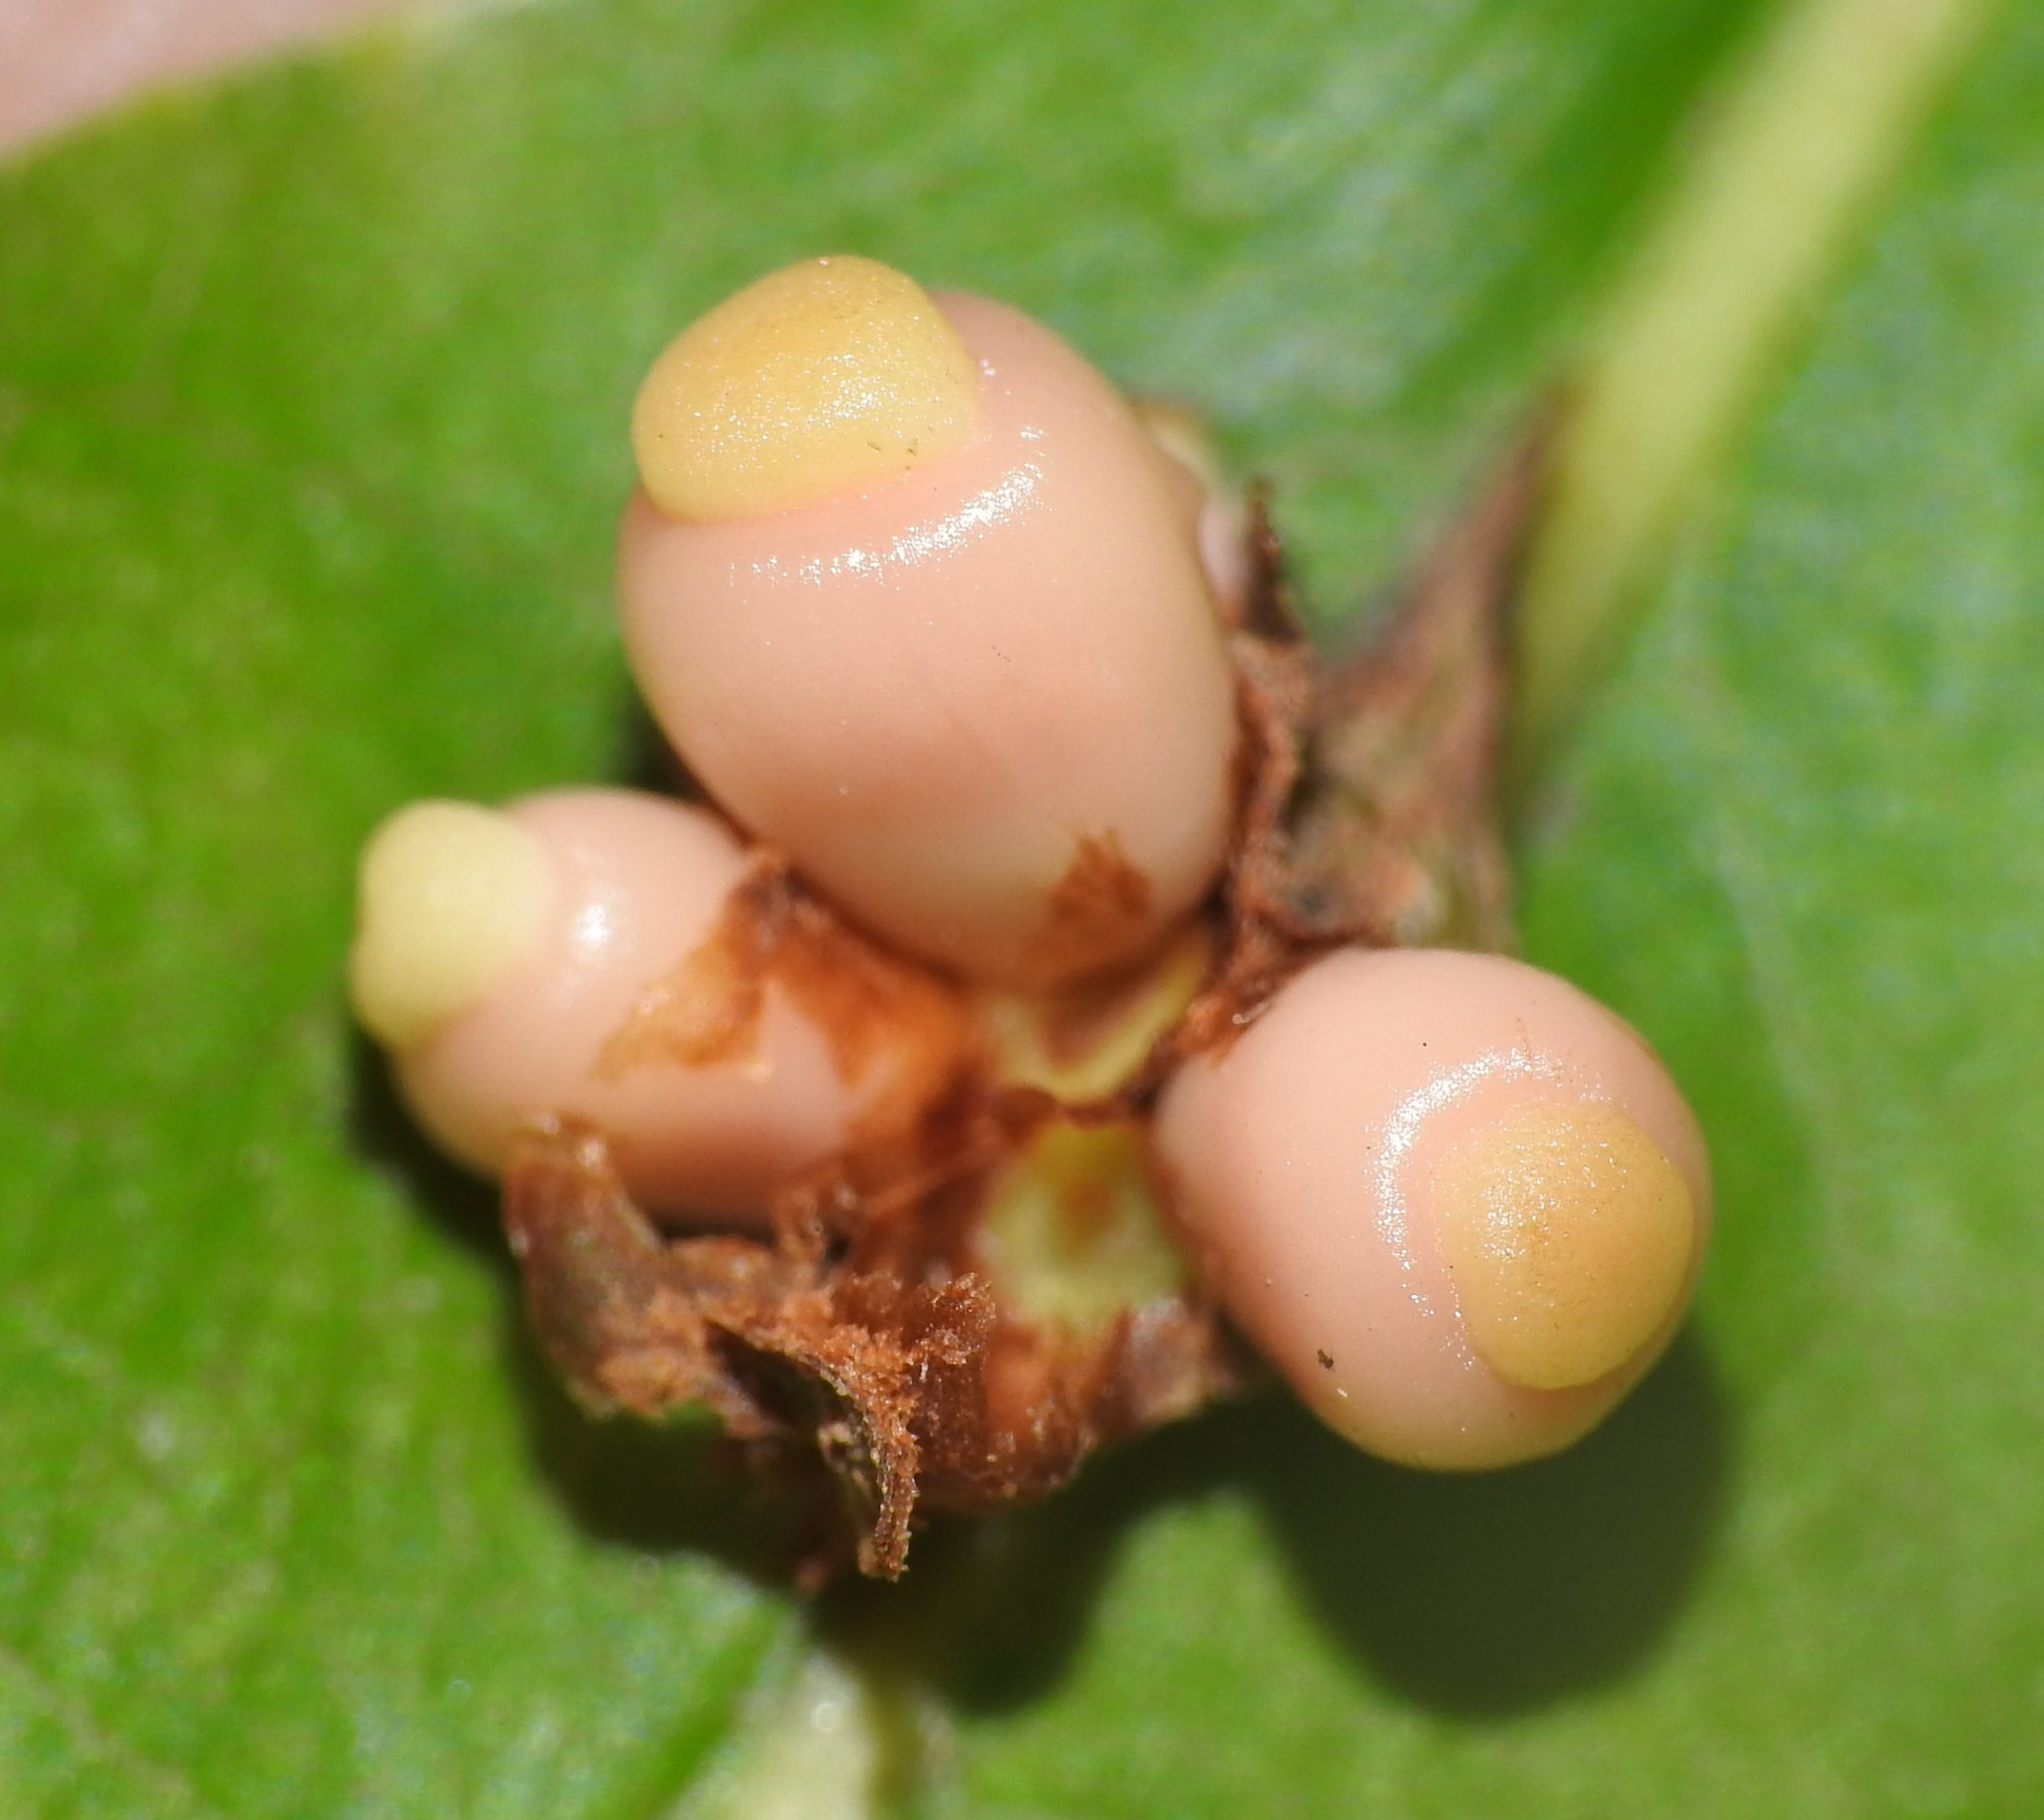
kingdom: Animalia
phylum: Arthropoda
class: Insecta
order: Hymenoptera
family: Cynipidae
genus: Kokkocynips
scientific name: Kokkocynips decidua
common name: Oak wheat gall
